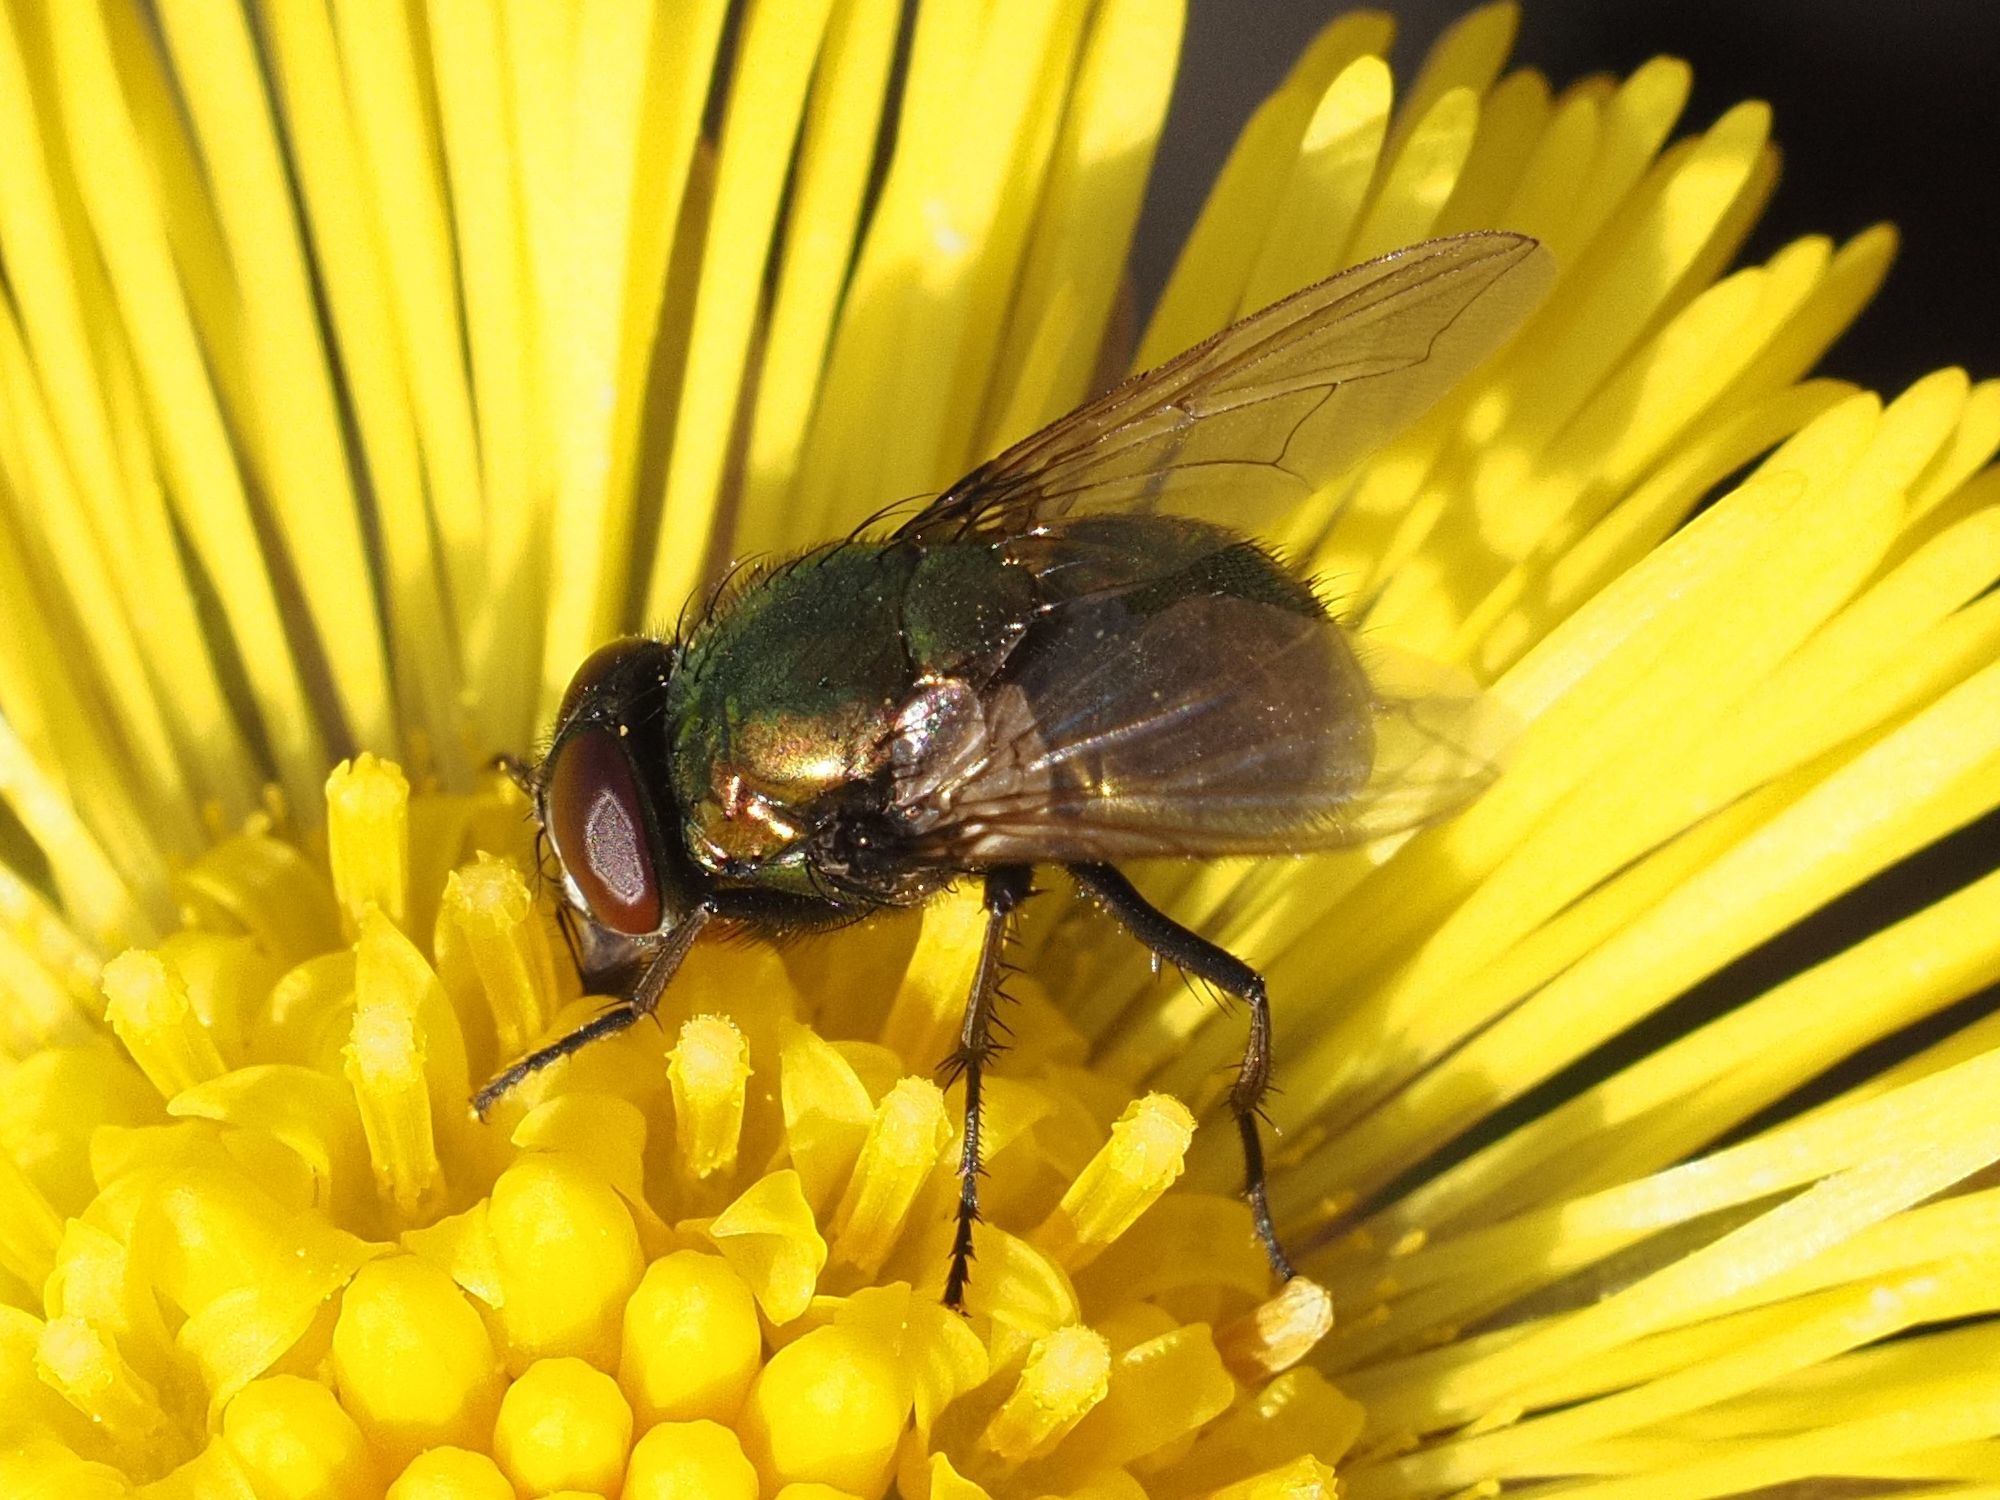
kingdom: Animalia
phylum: Arthropoda
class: Insecta
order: Diptera
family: Muscidae
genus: Neomyia
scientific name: Neomyia cornicina
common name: House fly
